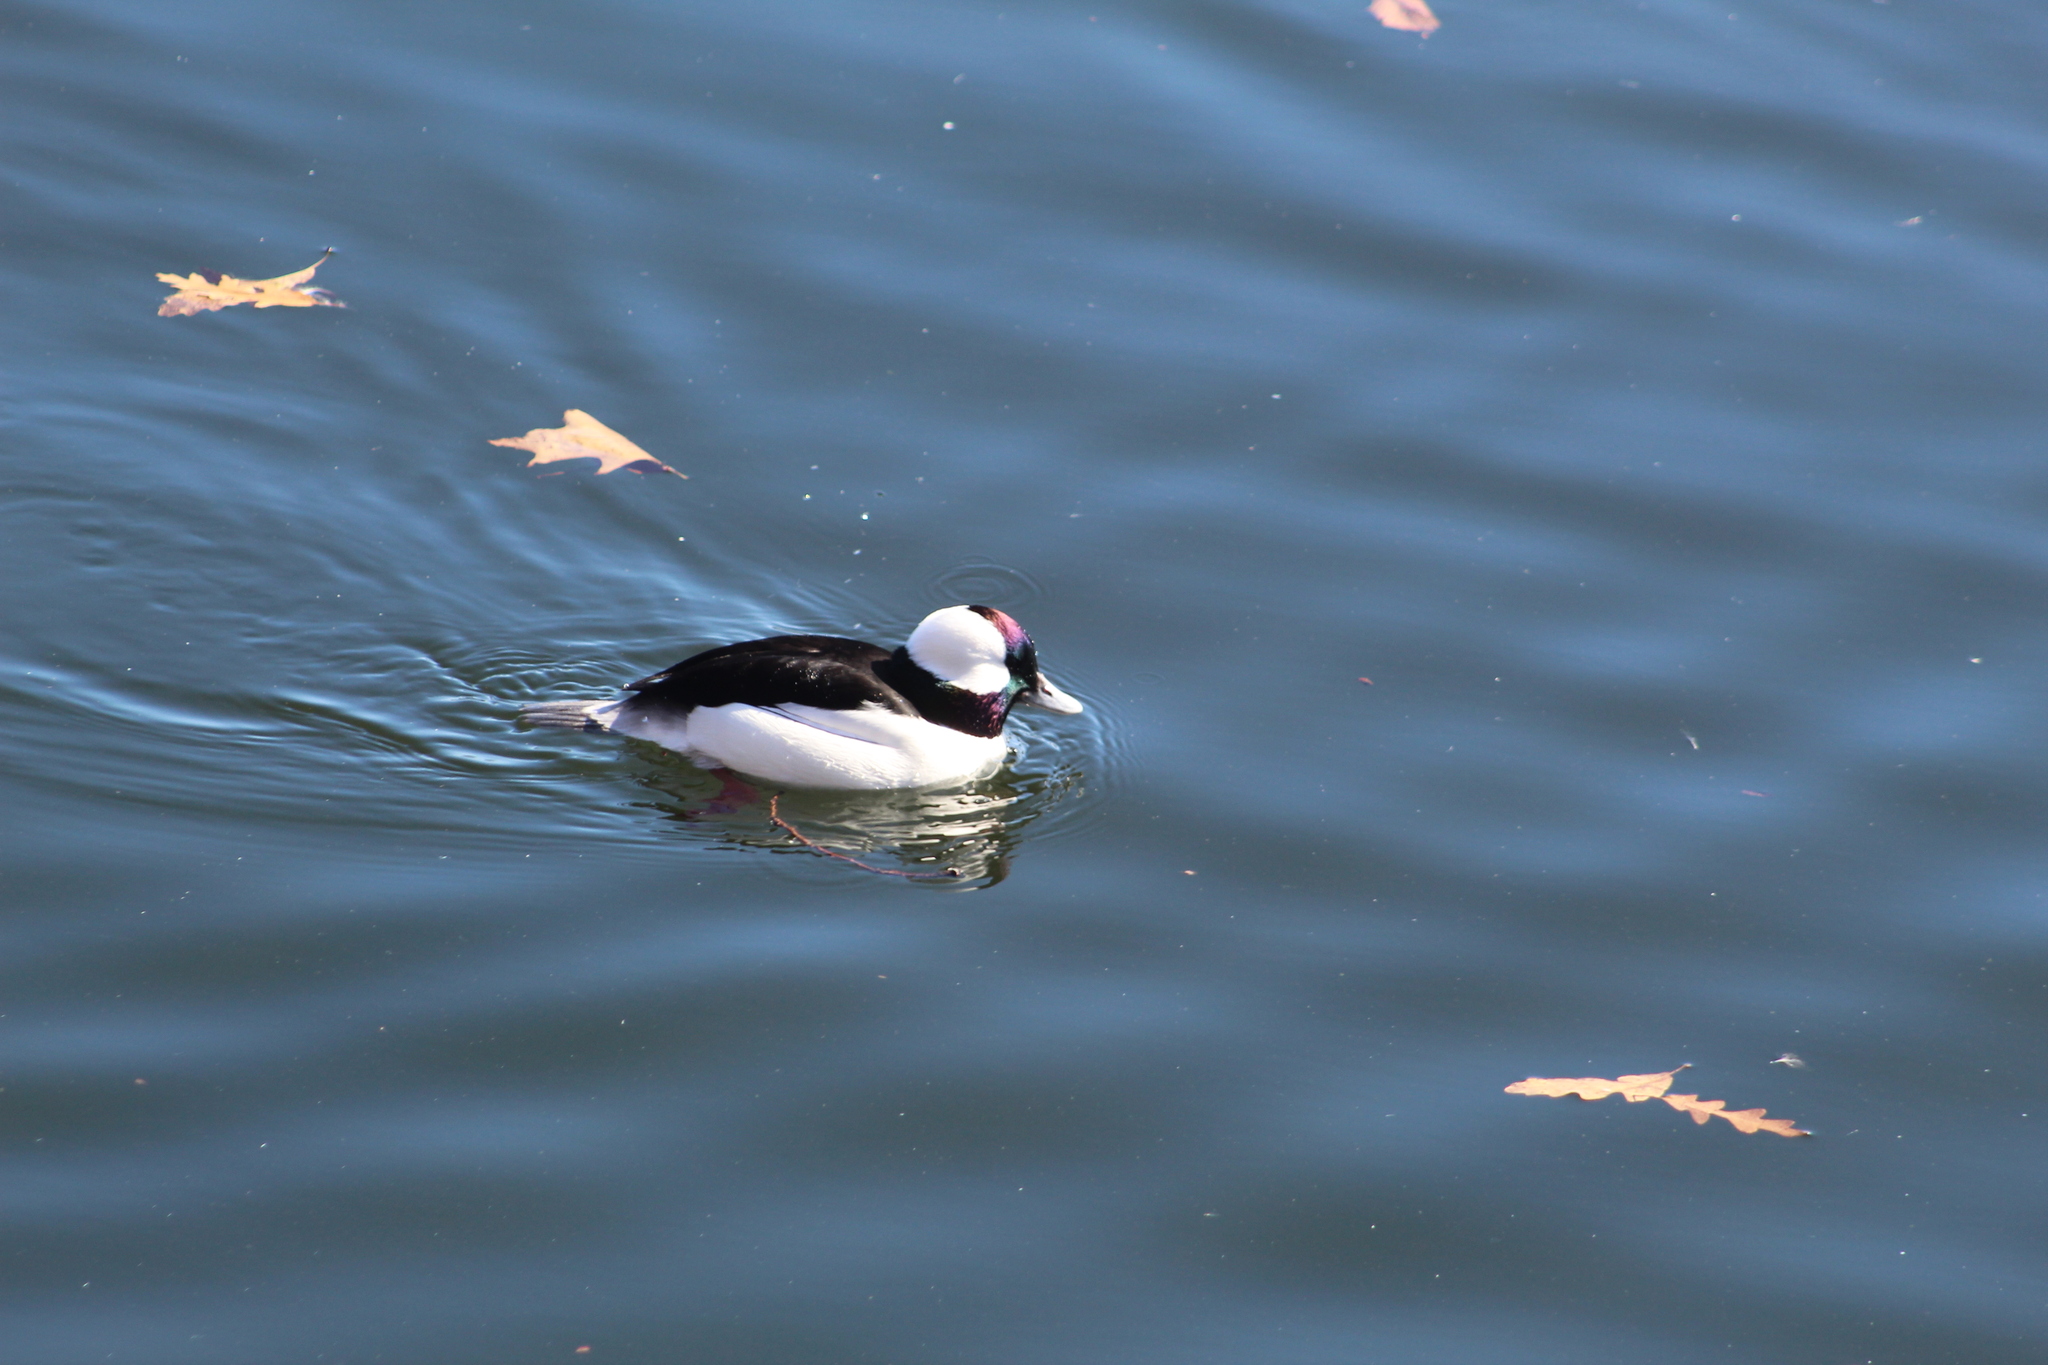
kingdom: Animalia
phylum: Chordata
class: Aves
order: Anseriformes
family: Anatidae
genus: Bucephala
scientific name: Bucephala albeola
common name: Bufflehead
